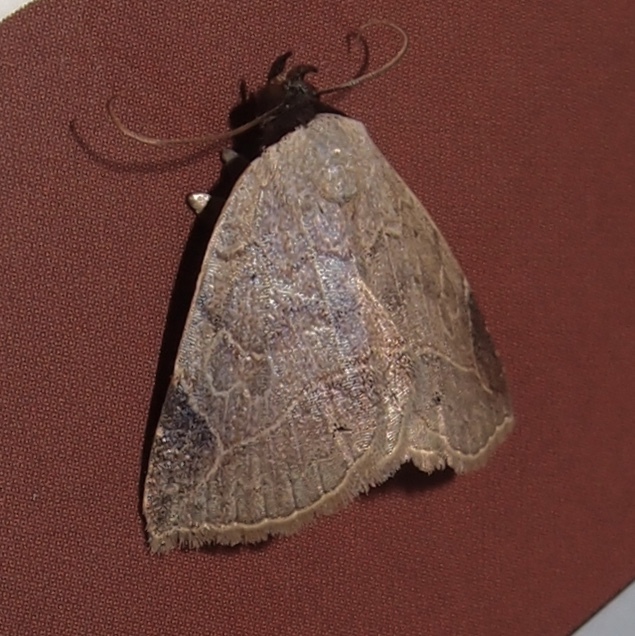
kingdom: Animalia
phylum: Arthropoda
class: Insecta
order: Lepidoptera
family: Erebidae
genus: Isogona
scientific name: Isogona segura
